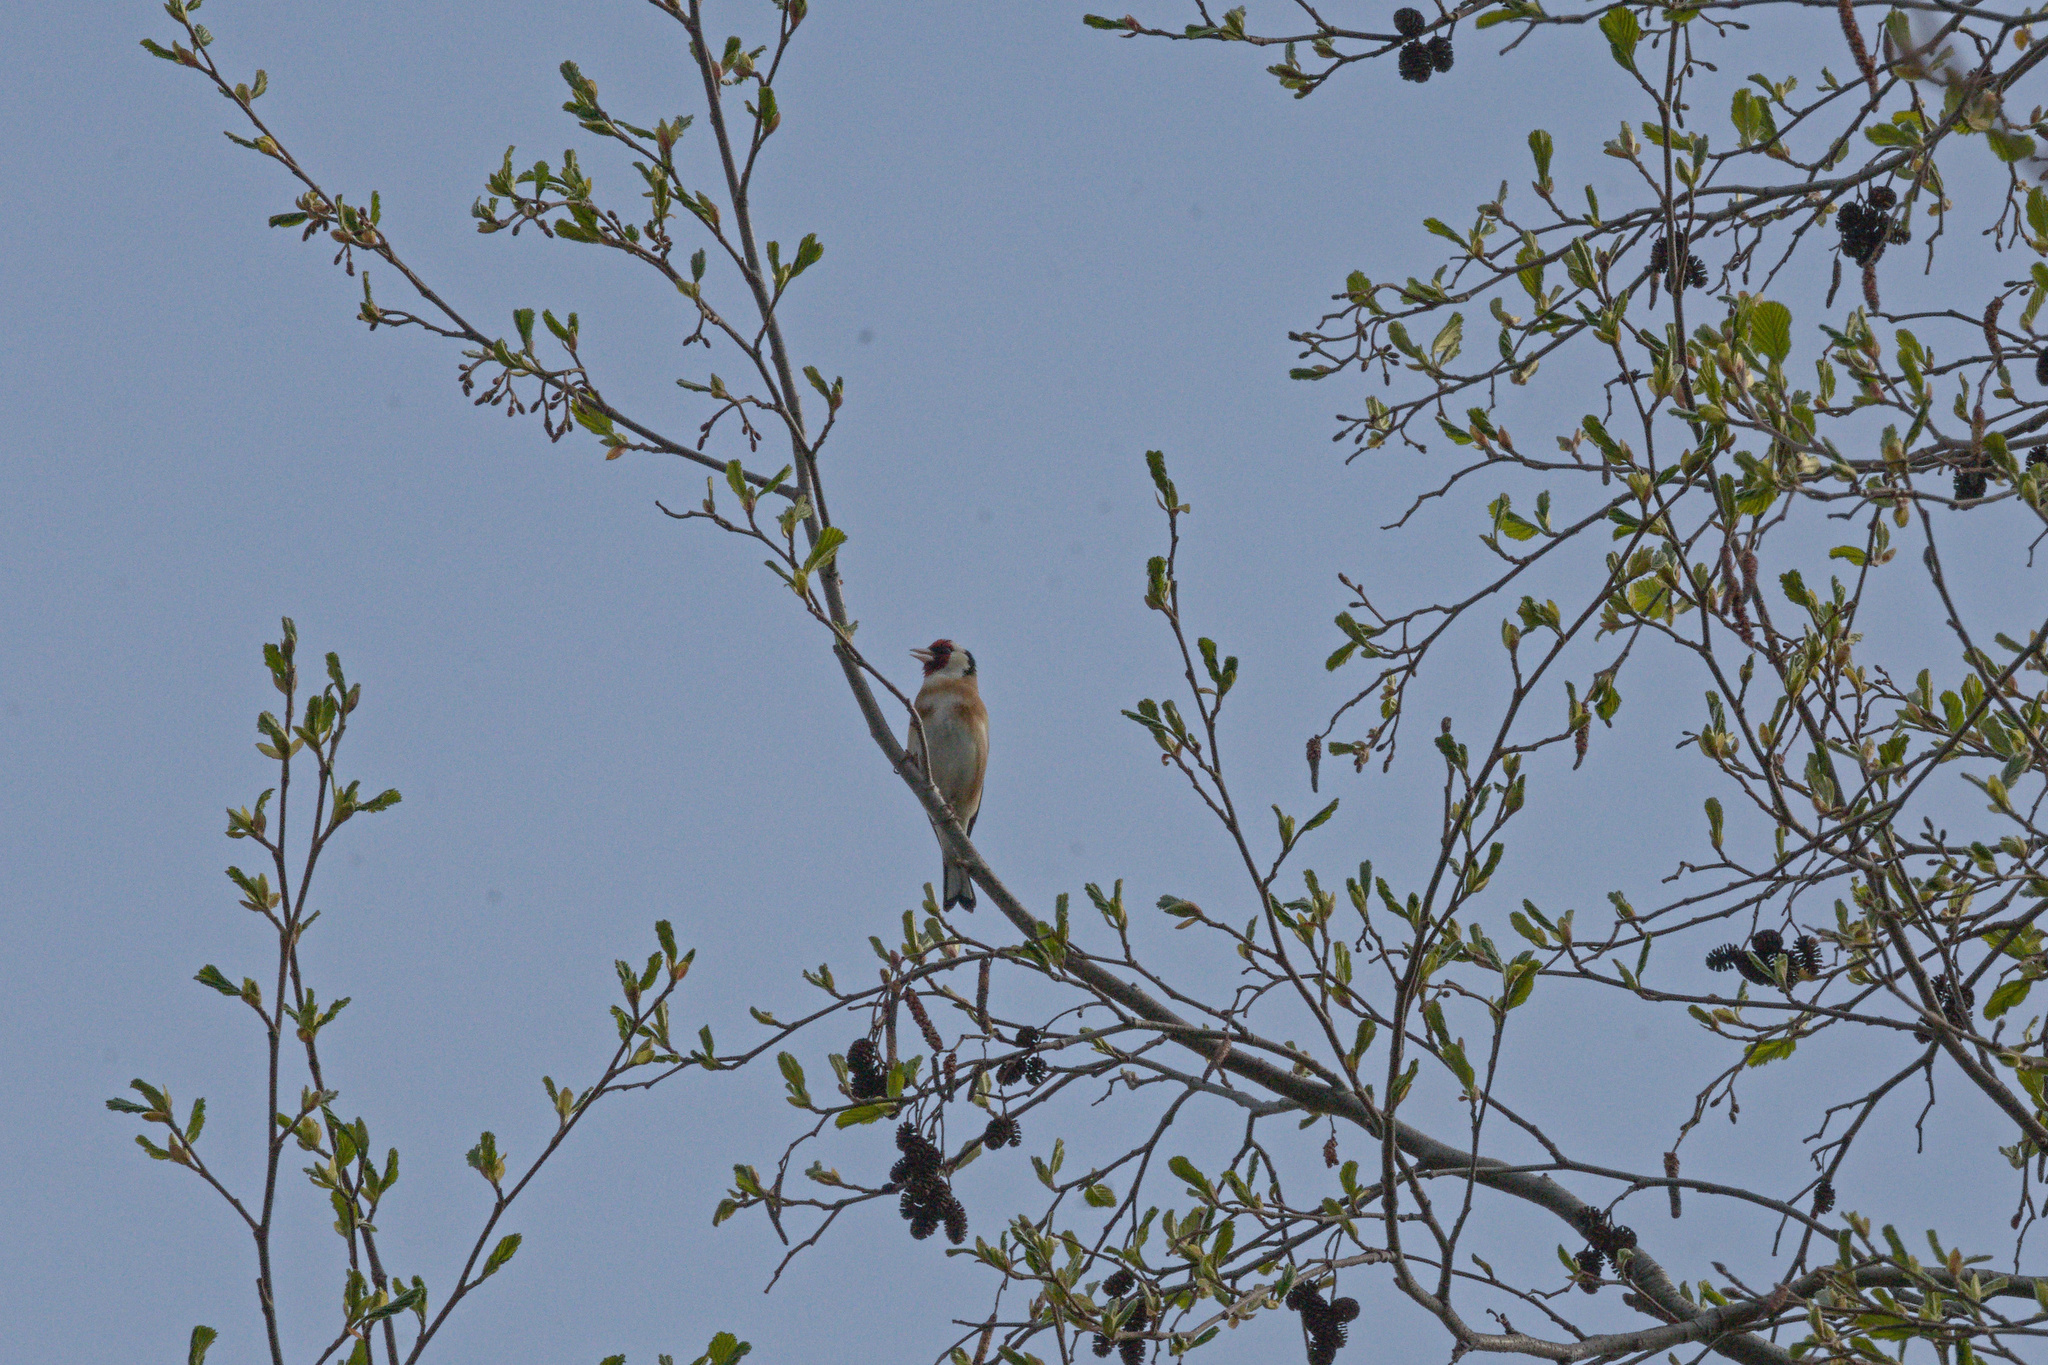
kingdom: Animalia
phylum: Chordata
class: Aves
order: Passeriformes
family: Fringillidae
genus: Carduelis
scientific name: Carduelis carduelis
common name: European goldfinch
